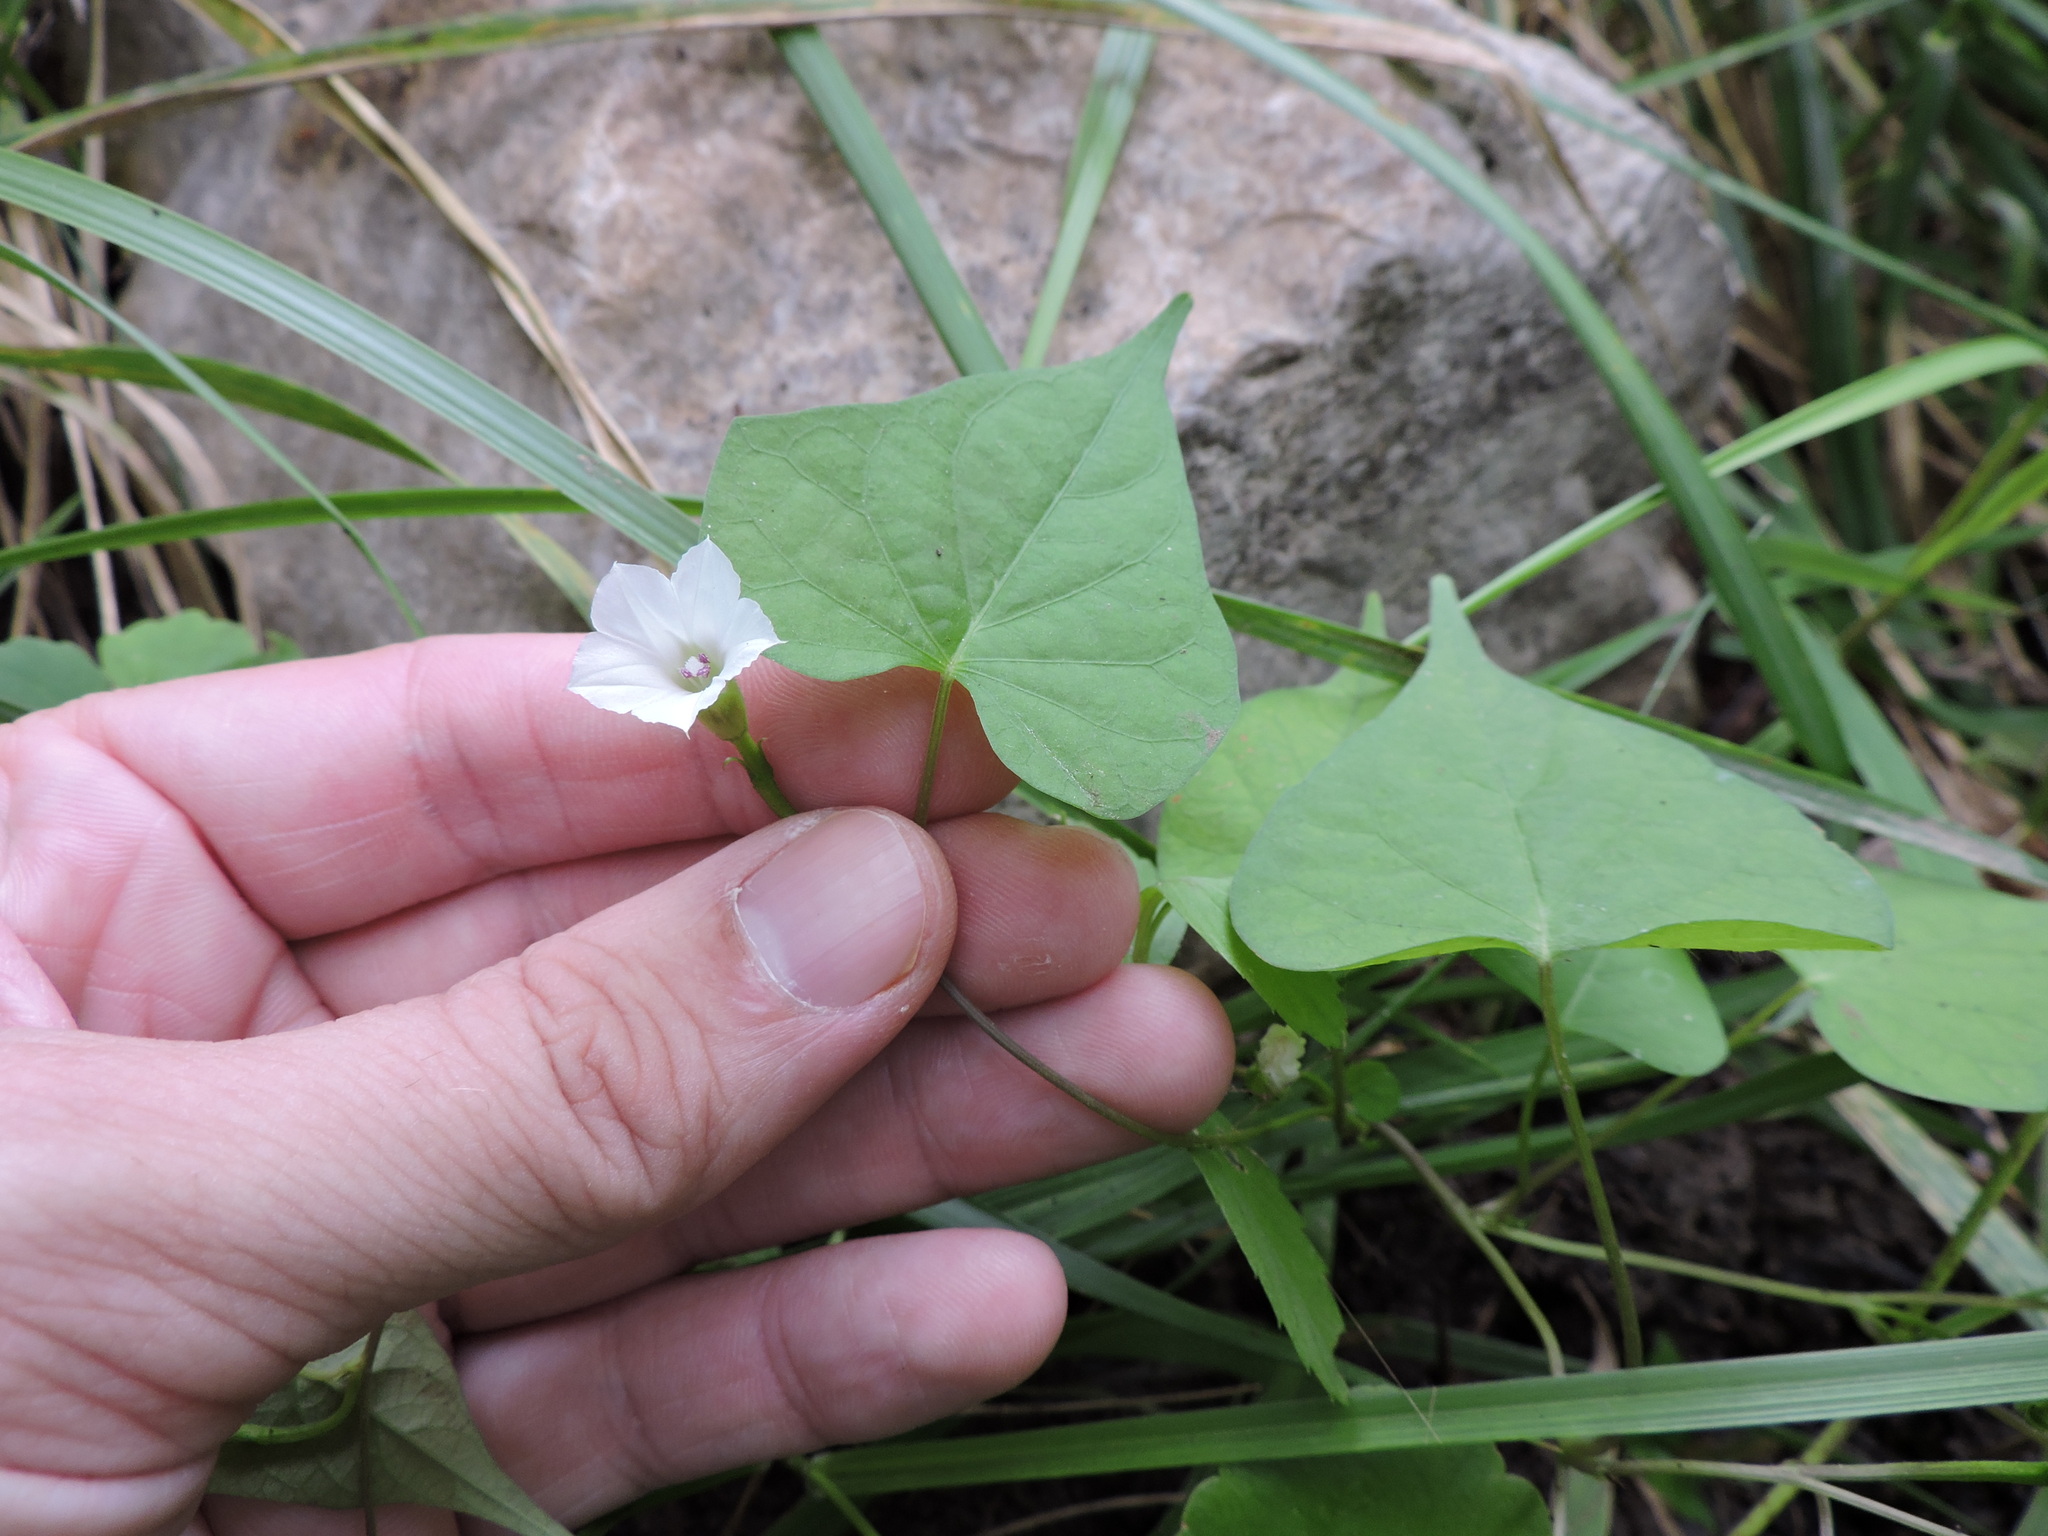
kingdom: Plantae
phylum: Tracheophyta
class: Magnoliopsida
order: Solanales
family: Convolvulaceae
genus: Ipomoea
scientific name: Ipomoea lacunosa
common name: White morning-glory
